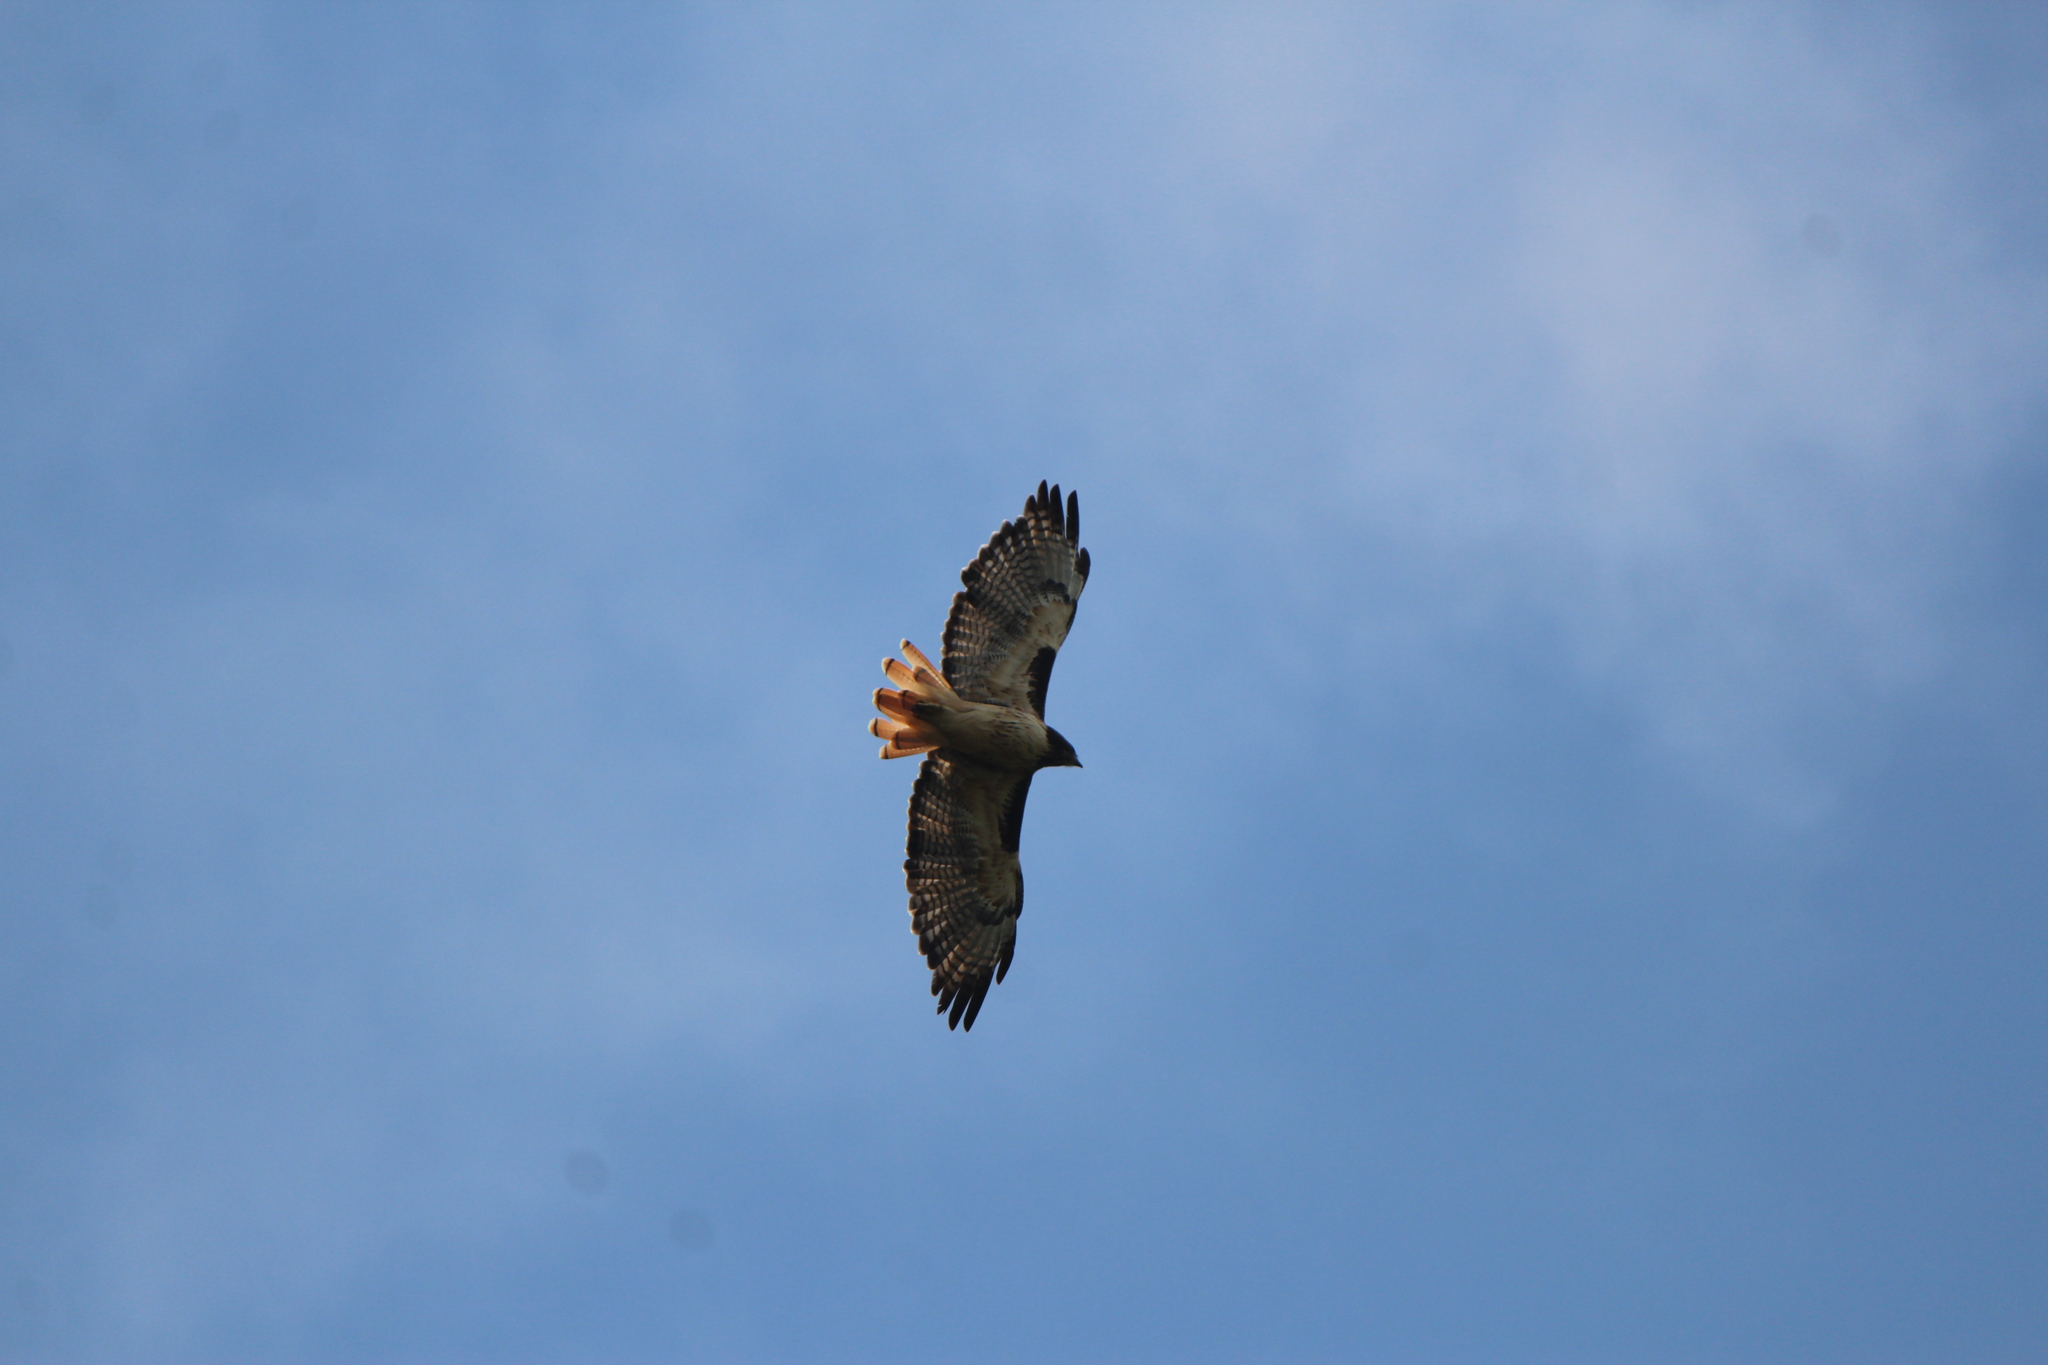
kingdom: Animalia
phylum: Chordata
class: Aves
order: Accipitriformes
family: Accipitridae
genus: Buteo
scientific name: Buteo jamaicensis
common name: Red-tailed hawk
